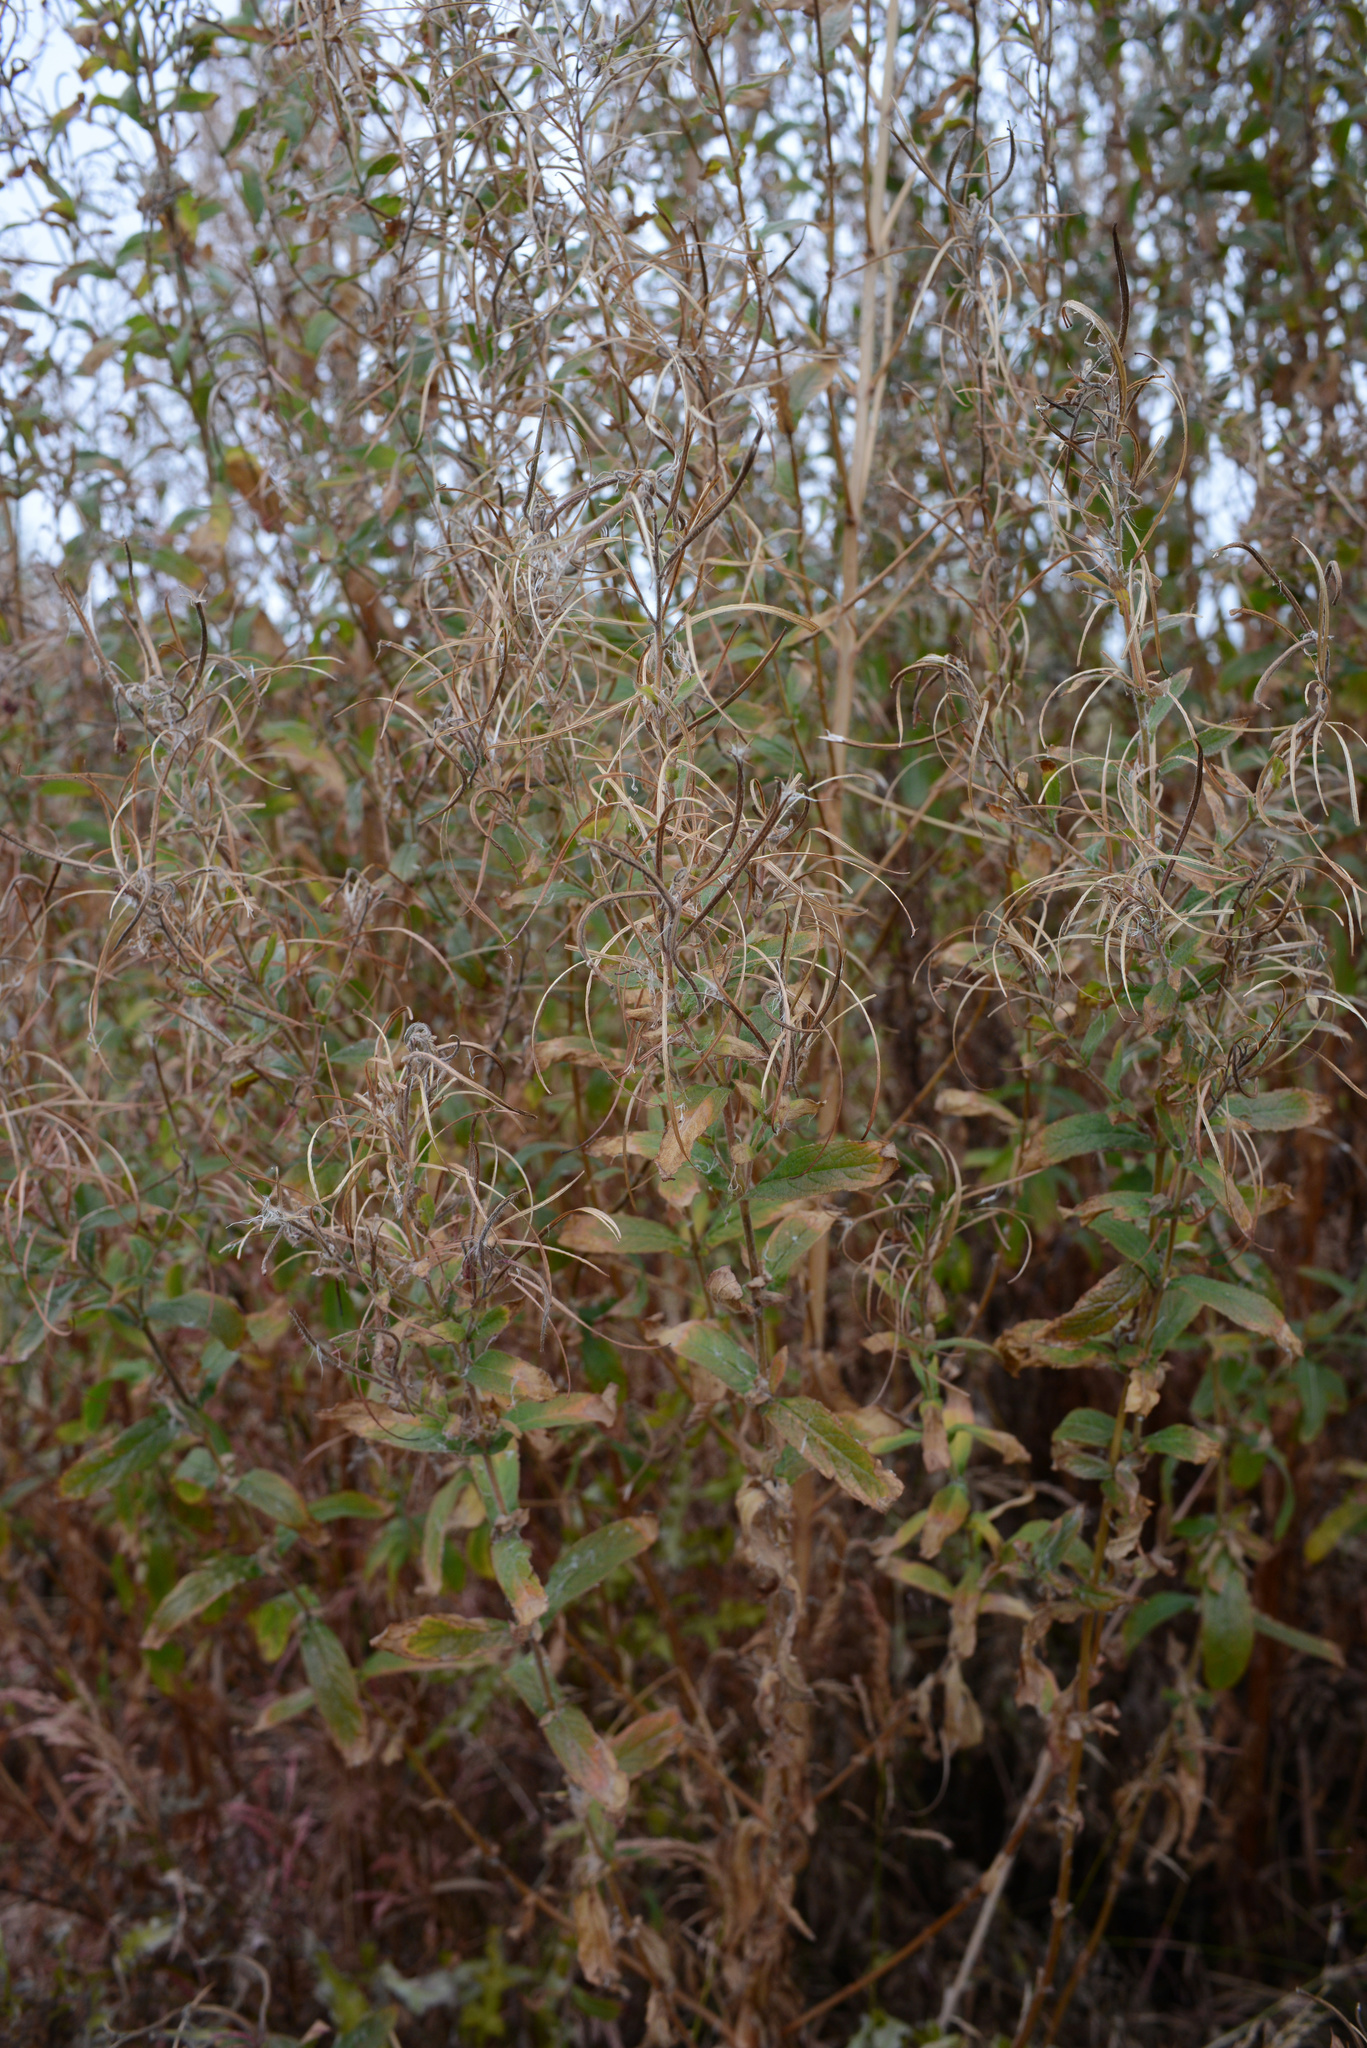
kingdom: Plantae
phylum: Tracheophyta
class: Magnoliopsida
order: Myrtales
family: Onagraceae
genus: Epilobium
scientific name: Epilobium hirsutum
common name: Great willowherb
